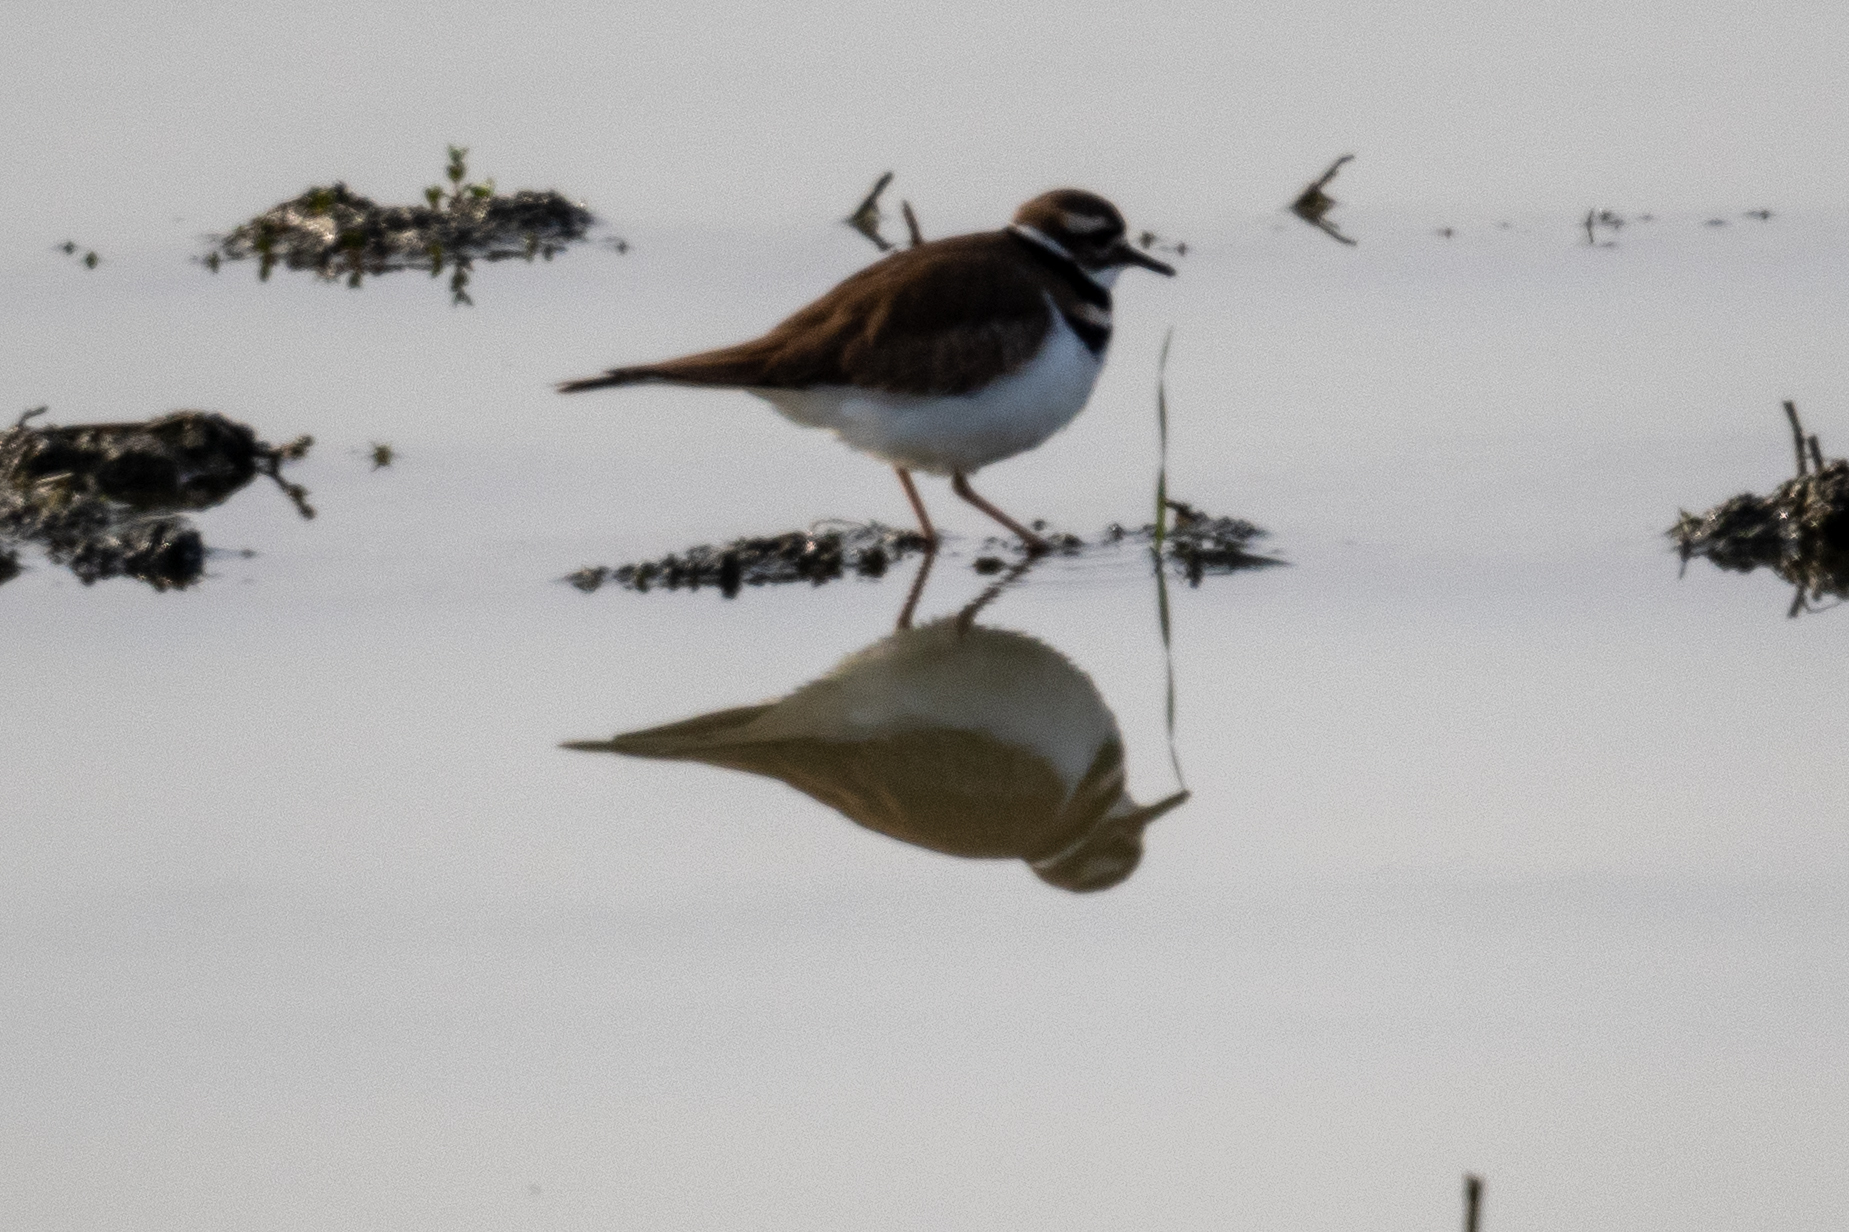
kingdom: Animalia
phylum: Chordata
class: Aves
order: Charadriiformes
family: Charadriidae
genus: Charadrius
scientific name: Charadrius vociferus
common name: Killdeer
